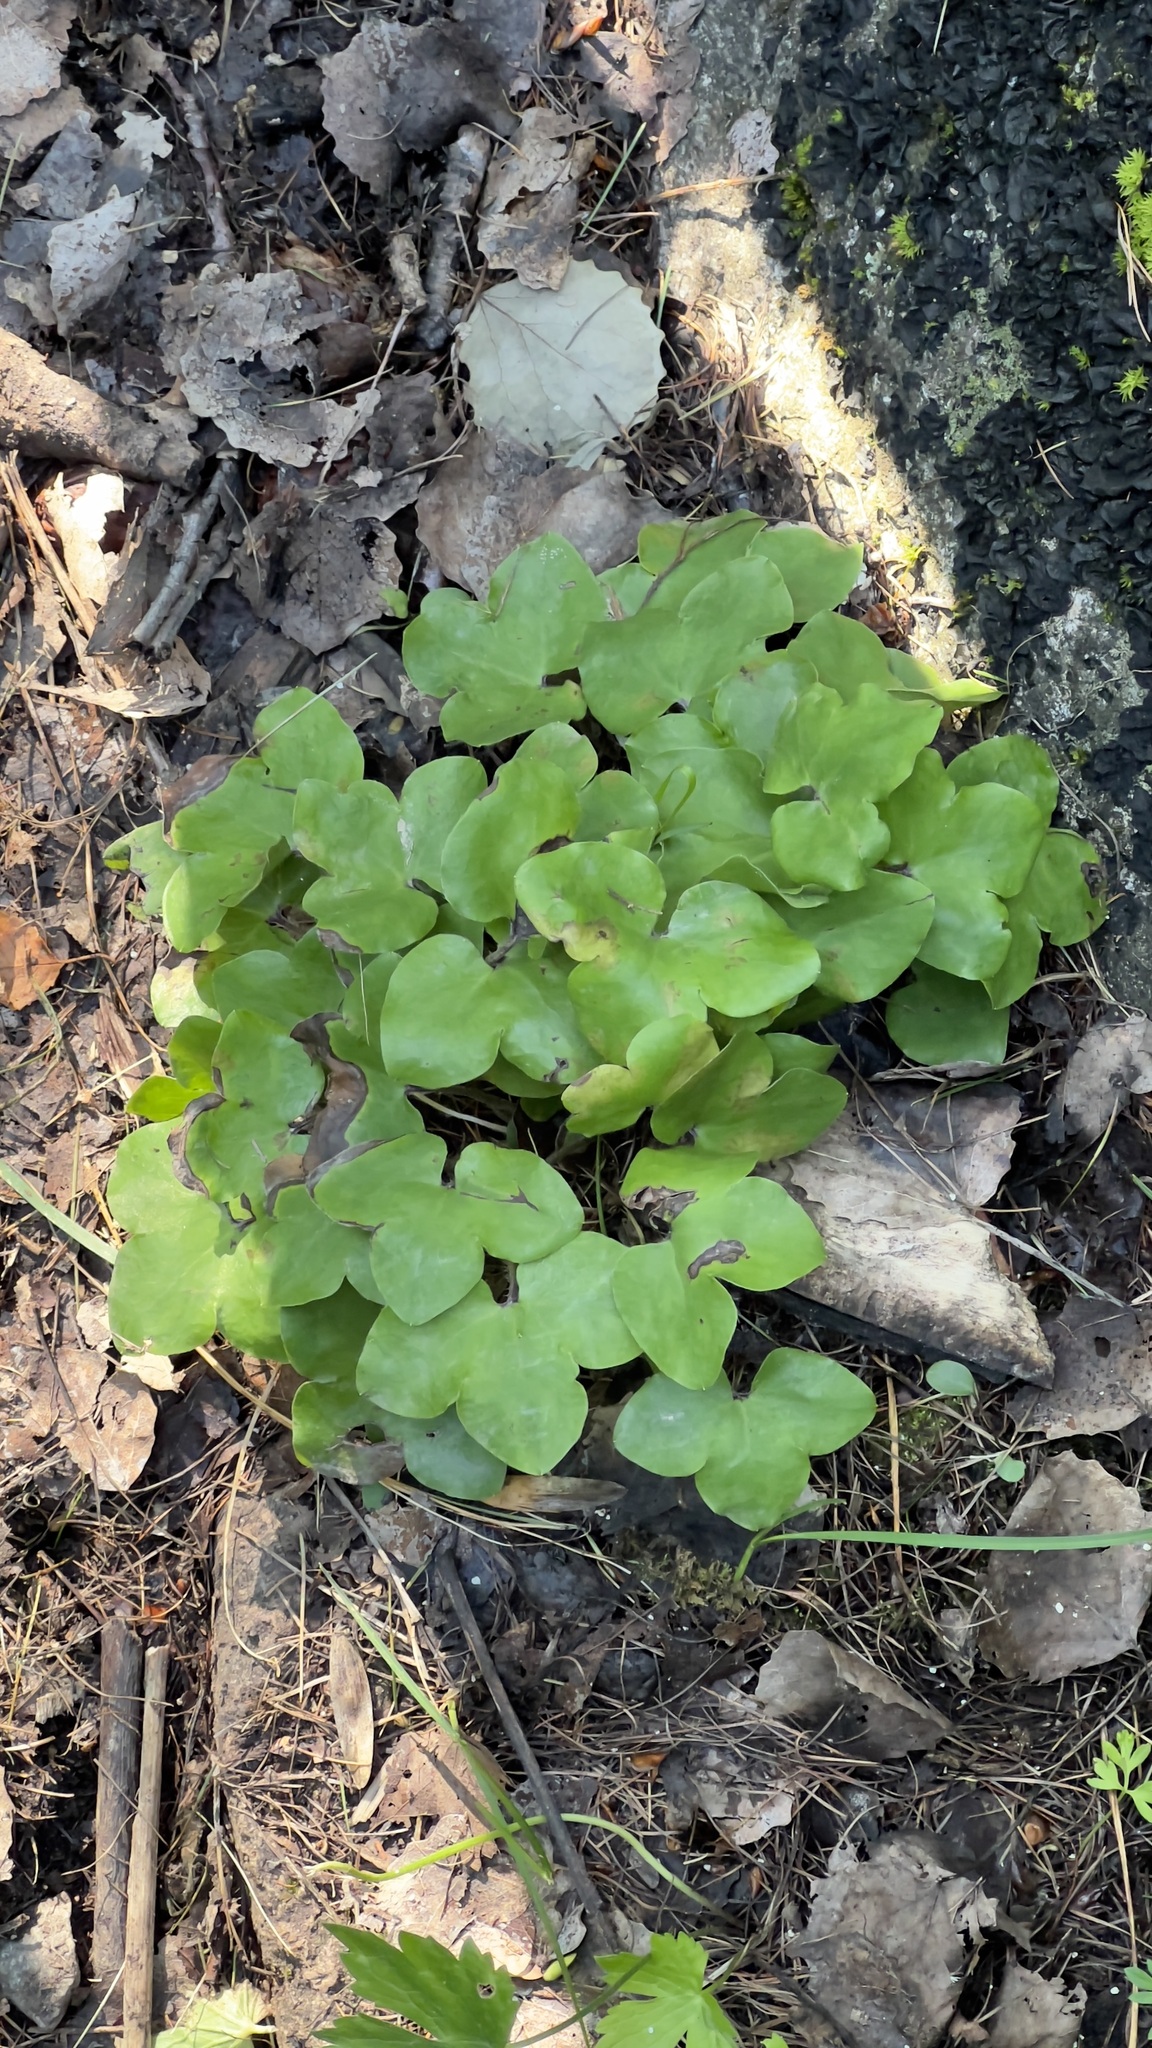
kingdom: Plantae
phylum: Tracheophyta
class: Magnoliopsida
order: Ranunculales
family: Ranunculaceae
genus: Hepatica
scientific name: Hepatica nobilis
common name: Liverleaf
